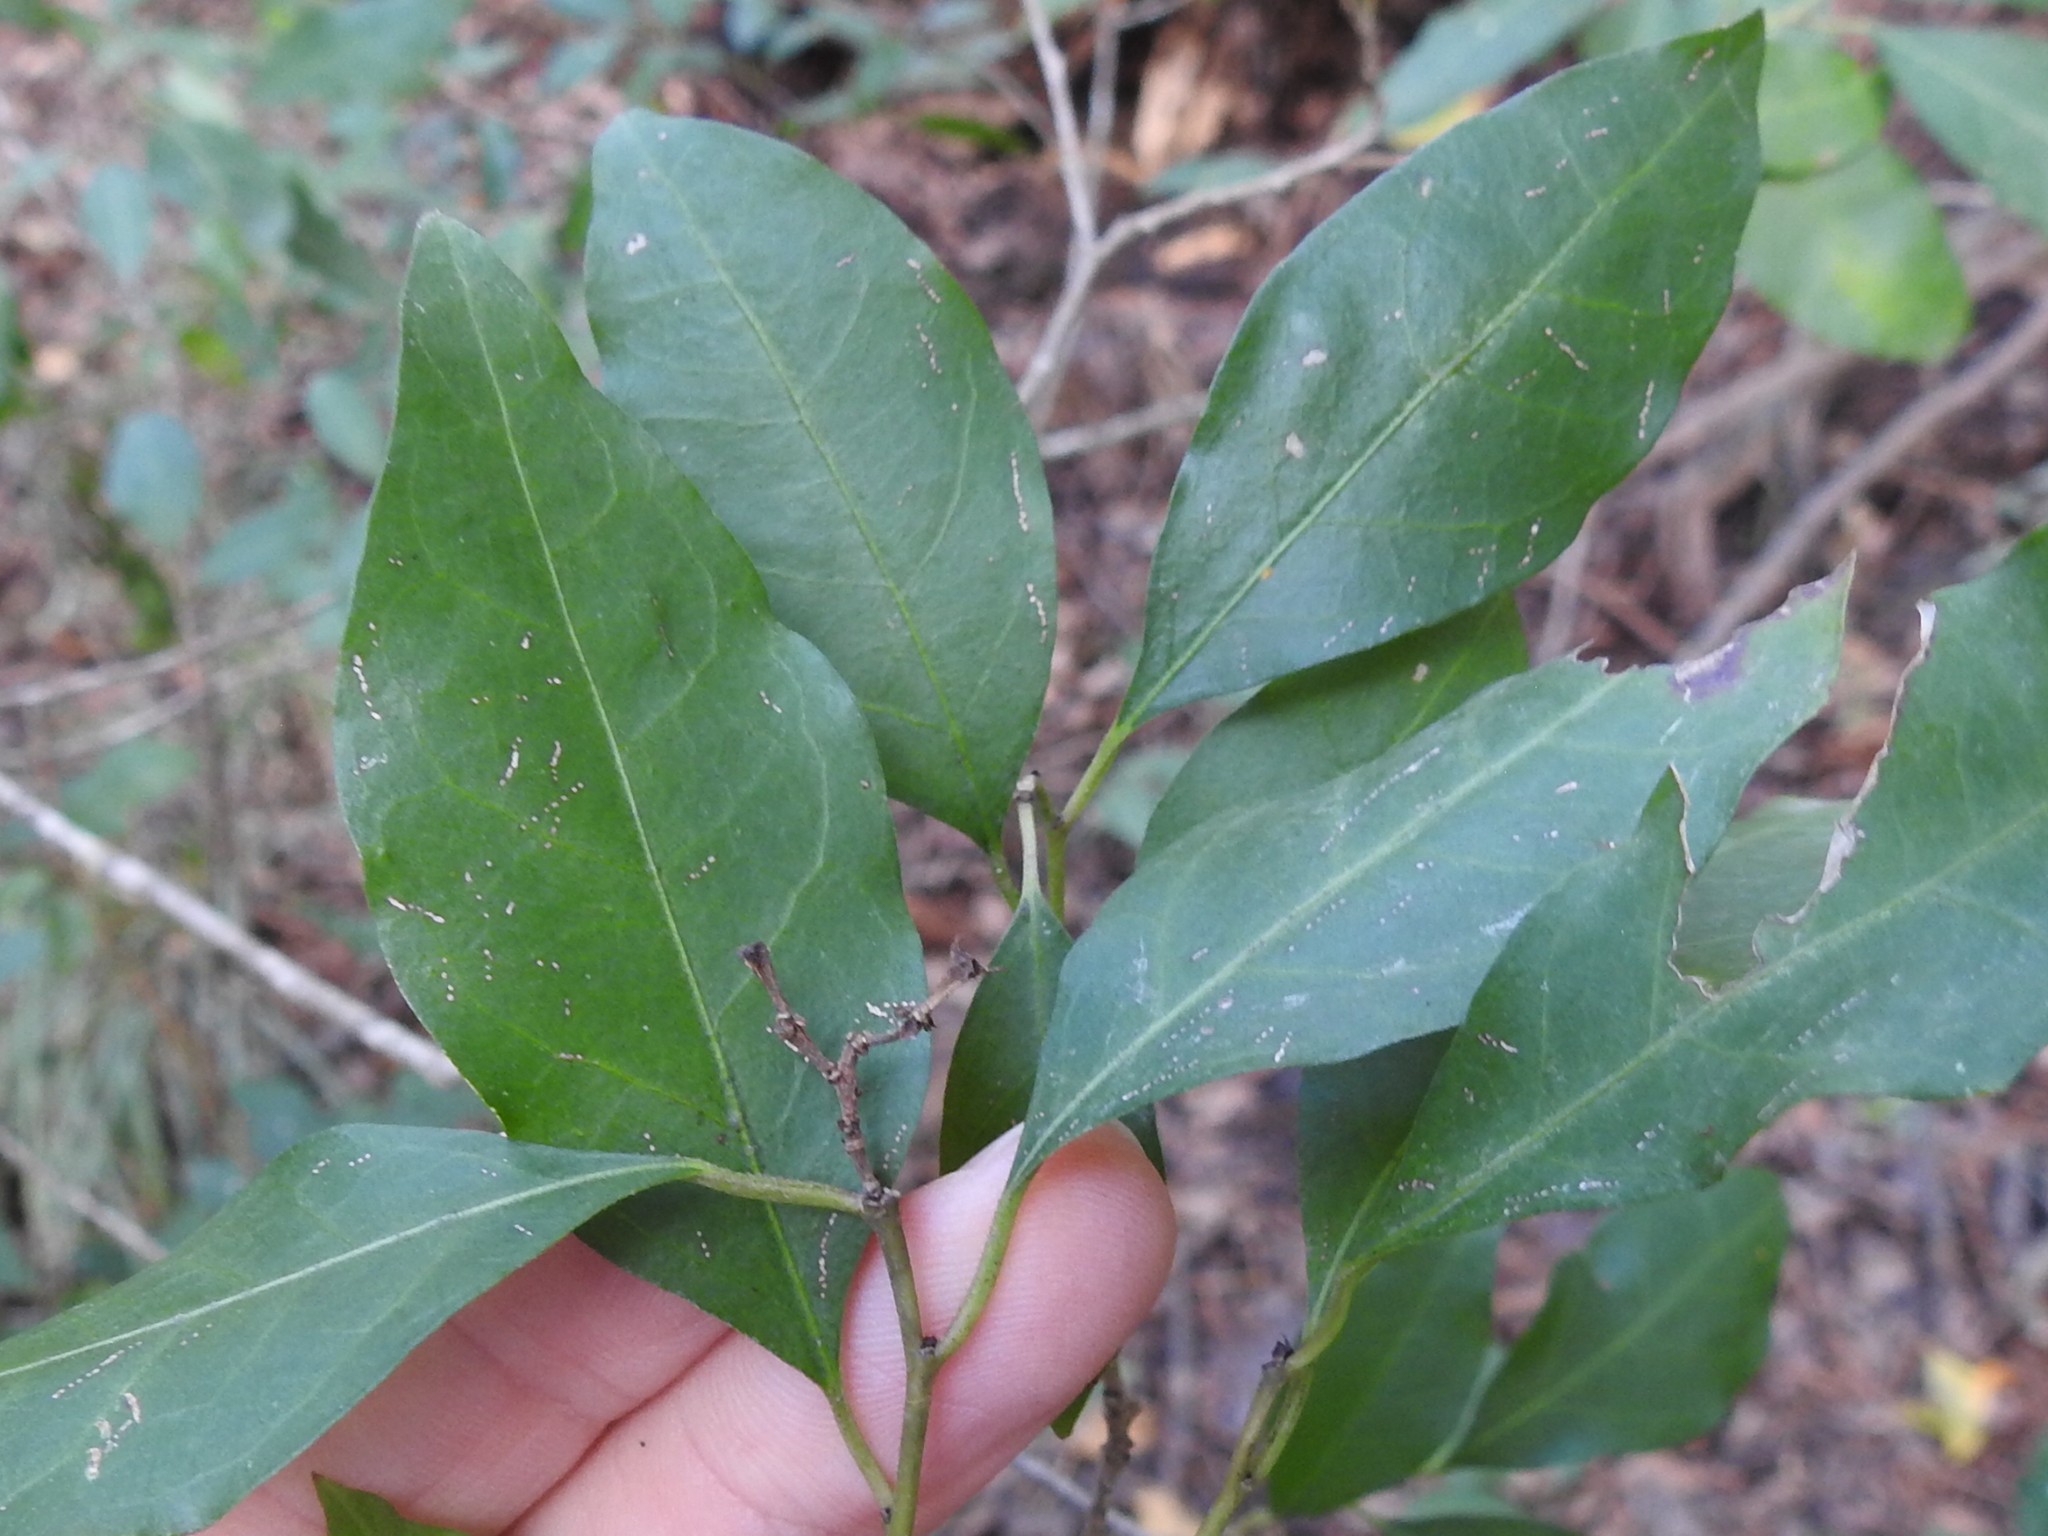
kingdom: Plantae
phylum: Tracheophyta
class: Magnoliopsida
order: Malpighiales
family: Euphorbiaceae
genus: Ditrysinia
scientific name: Ditrysinia fruticosa
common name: Gulf sebastian-bush
